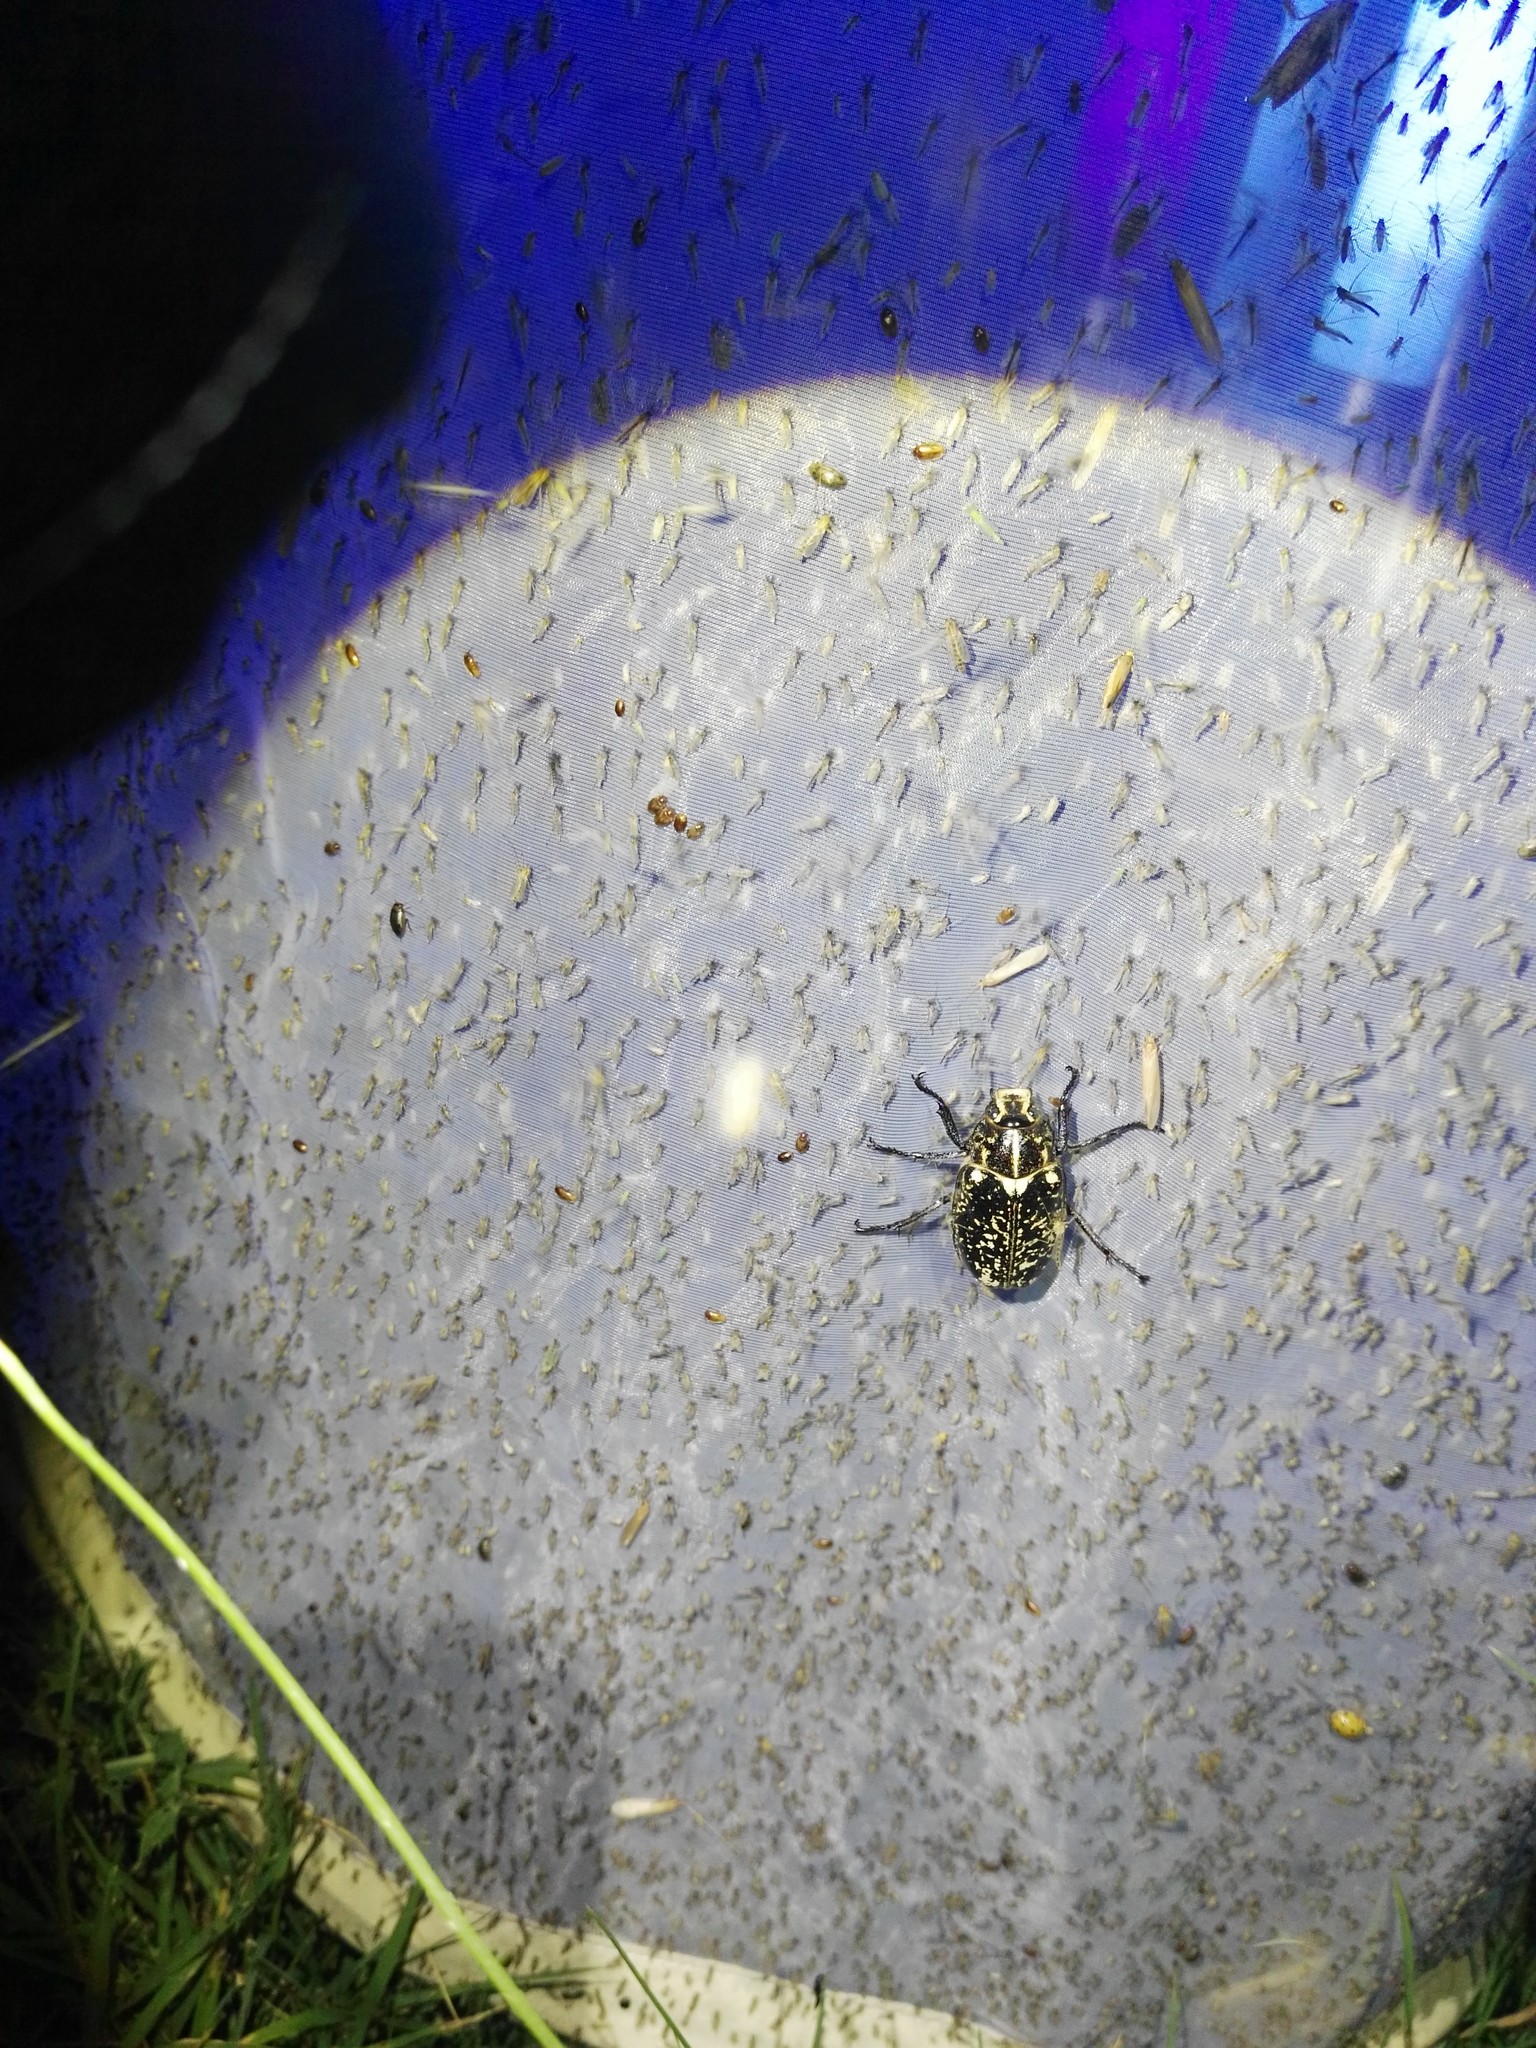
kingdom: Animalia
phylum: Arthropoda
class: Insecta
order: Coleoptera
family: Scarabaeidae
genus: Polyphylla
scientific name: Polyphylla fullo
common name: Pine chafer
